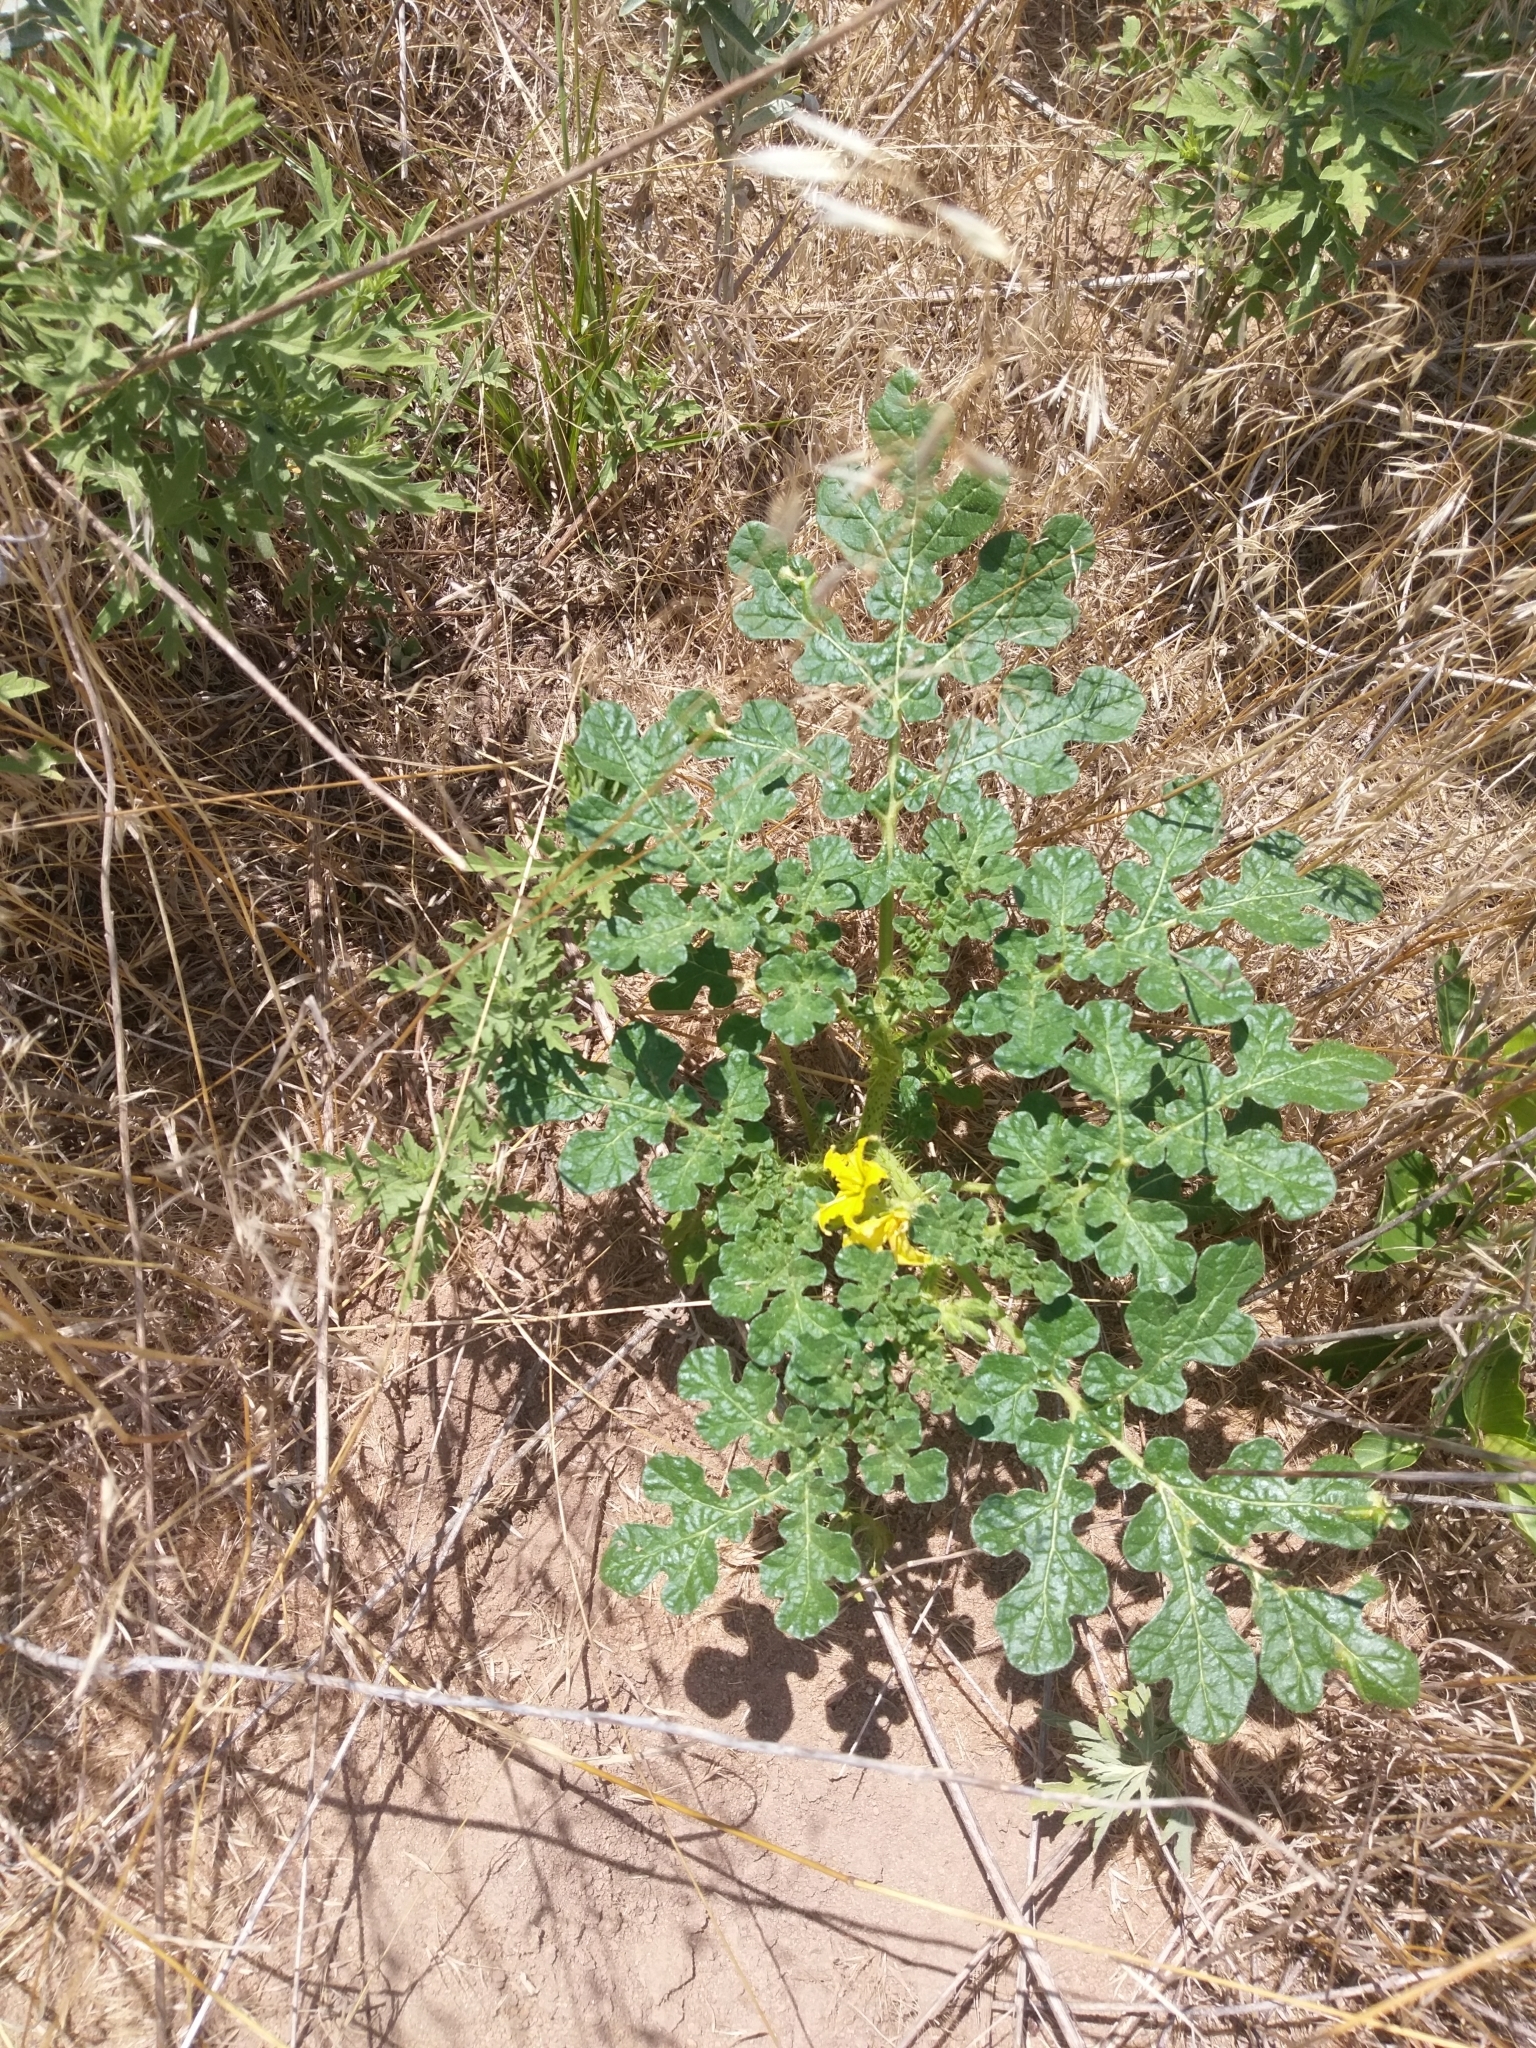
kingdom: Plantae
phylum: Tracheophyta
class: Magnoliopsida
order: Solanales
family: Solanaceae
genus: Solanum
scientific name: Solanum angustifolium
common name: Buffalobur nightshade
